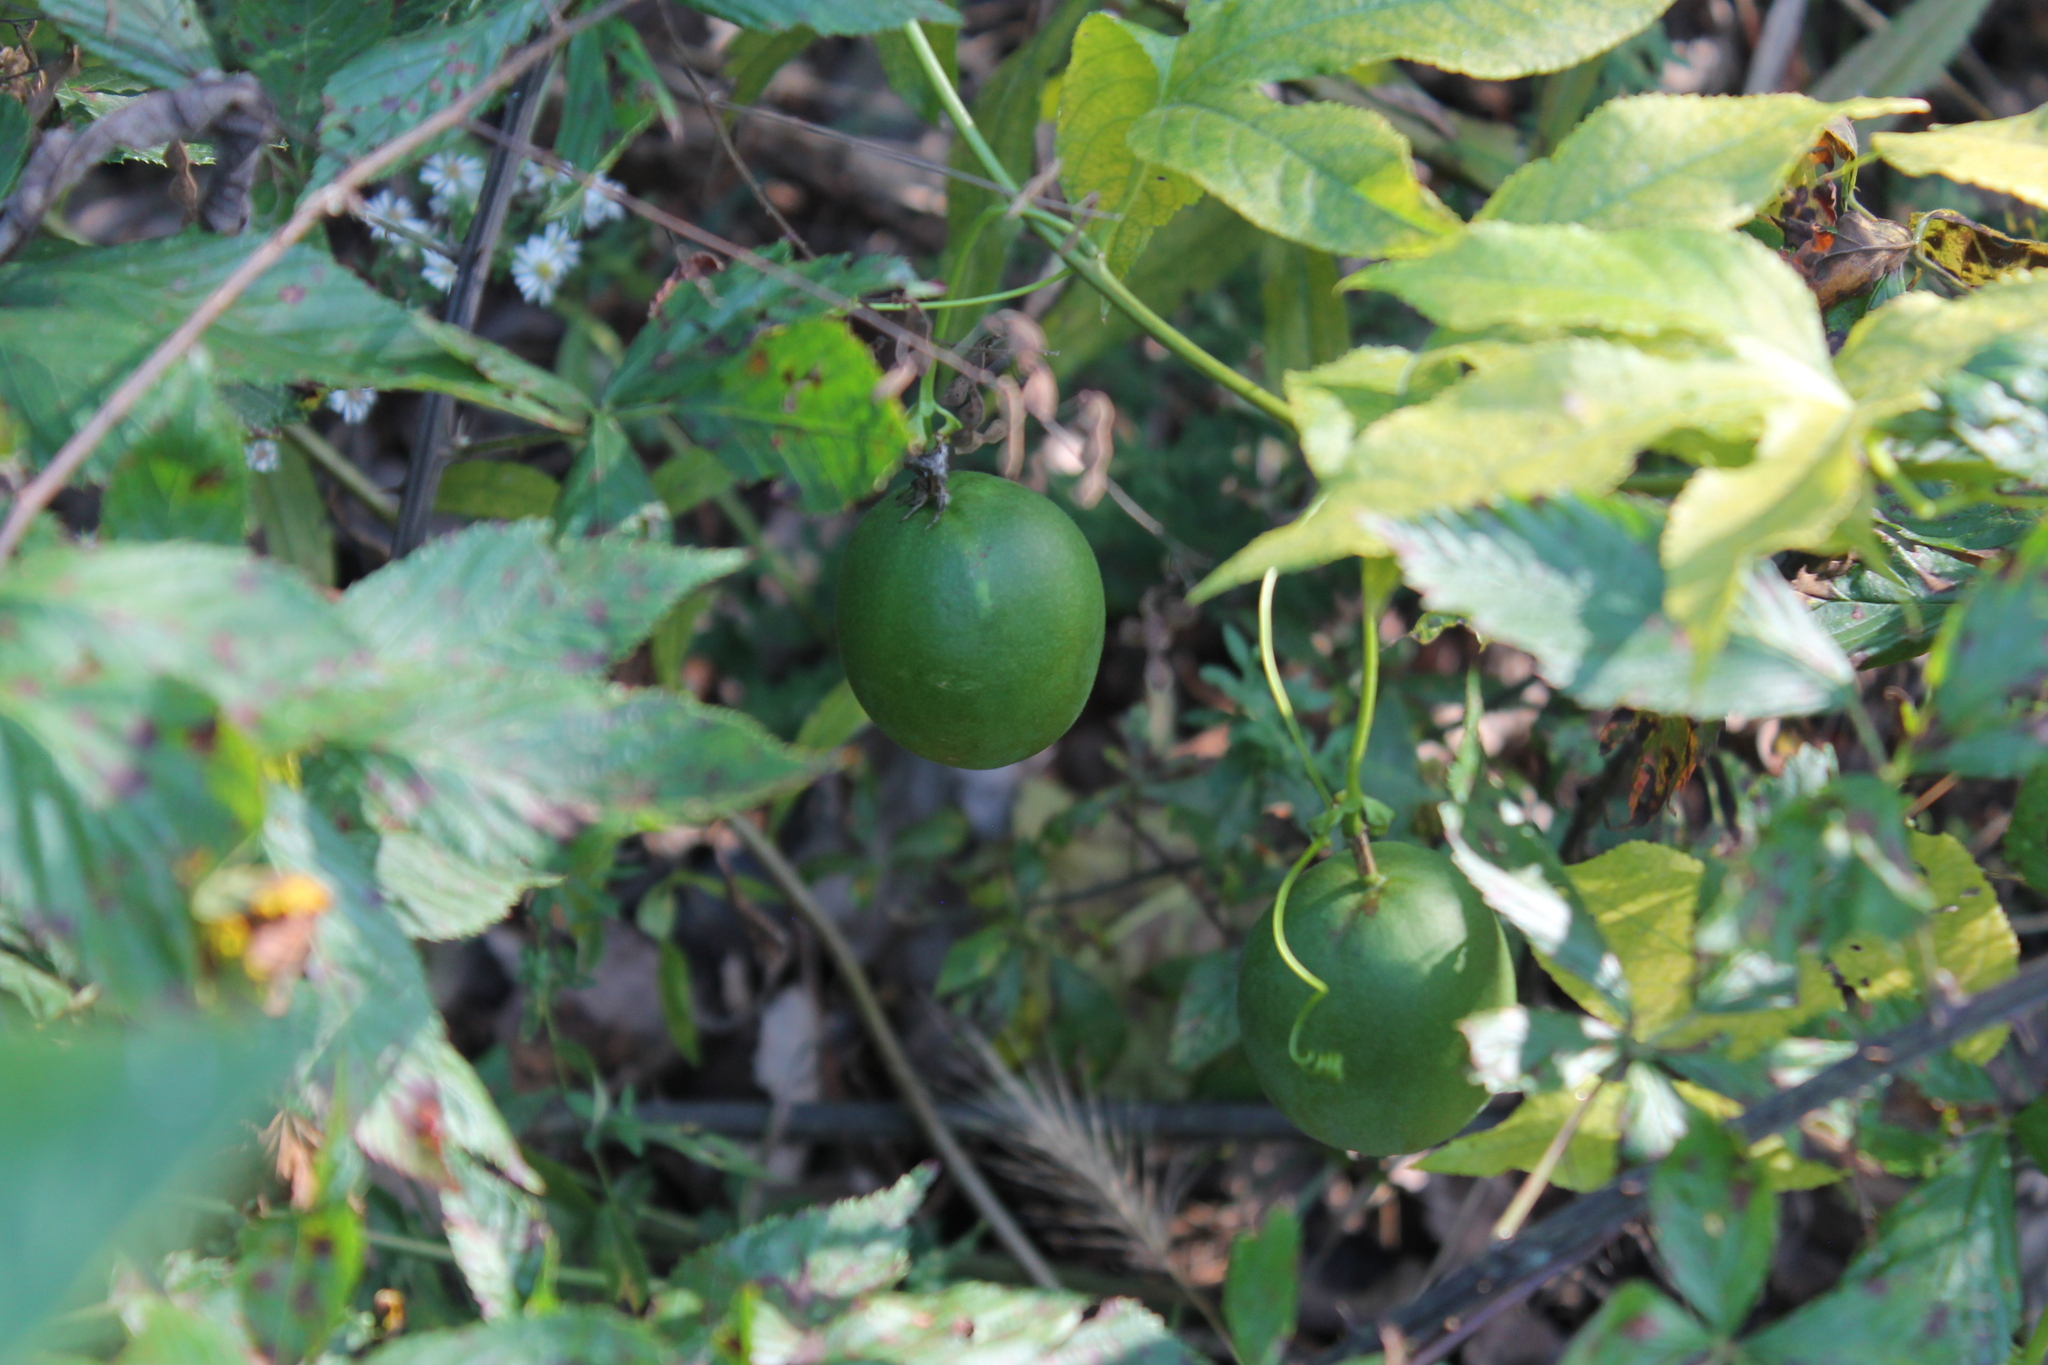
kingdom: Plantae
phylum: Tracheophyta
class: Magnoliopsida
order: Malpighiales
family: Passifloraceae
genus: Passiflora
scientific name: Passiflora incarnata
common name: Apricot-vine
